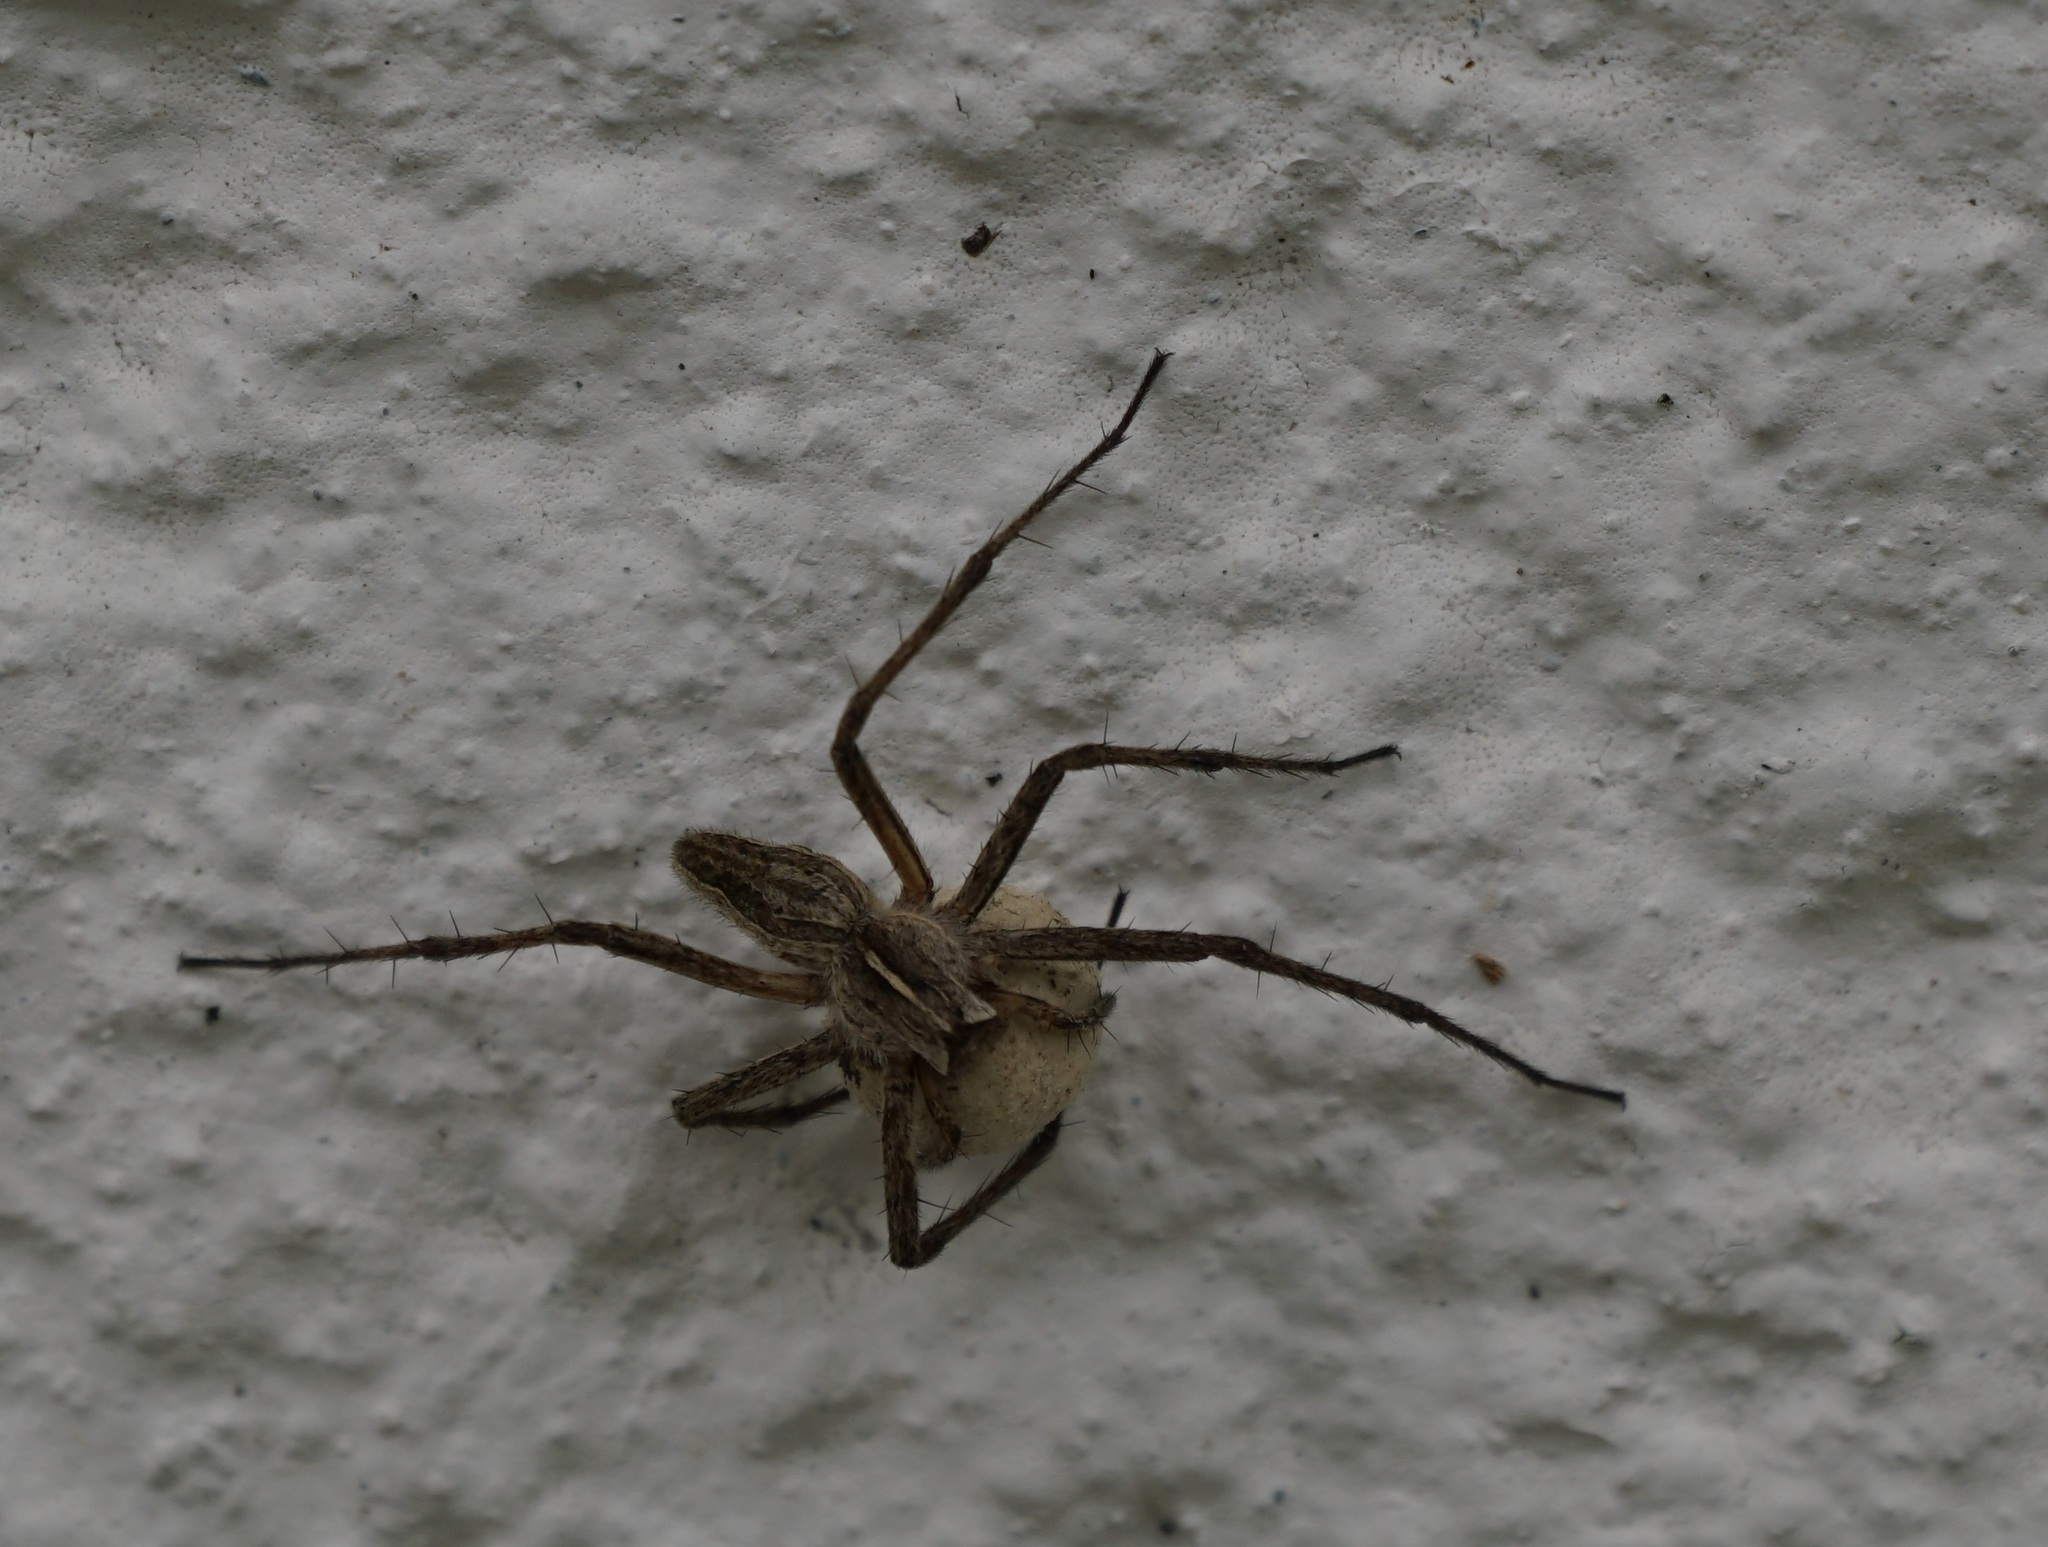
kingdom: Animalia
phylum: Arthropoda
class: Arachnida
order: Araneae
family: Pisauridae
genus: Pisaura
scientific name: Pisaura mirabilis
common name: Tent spider
